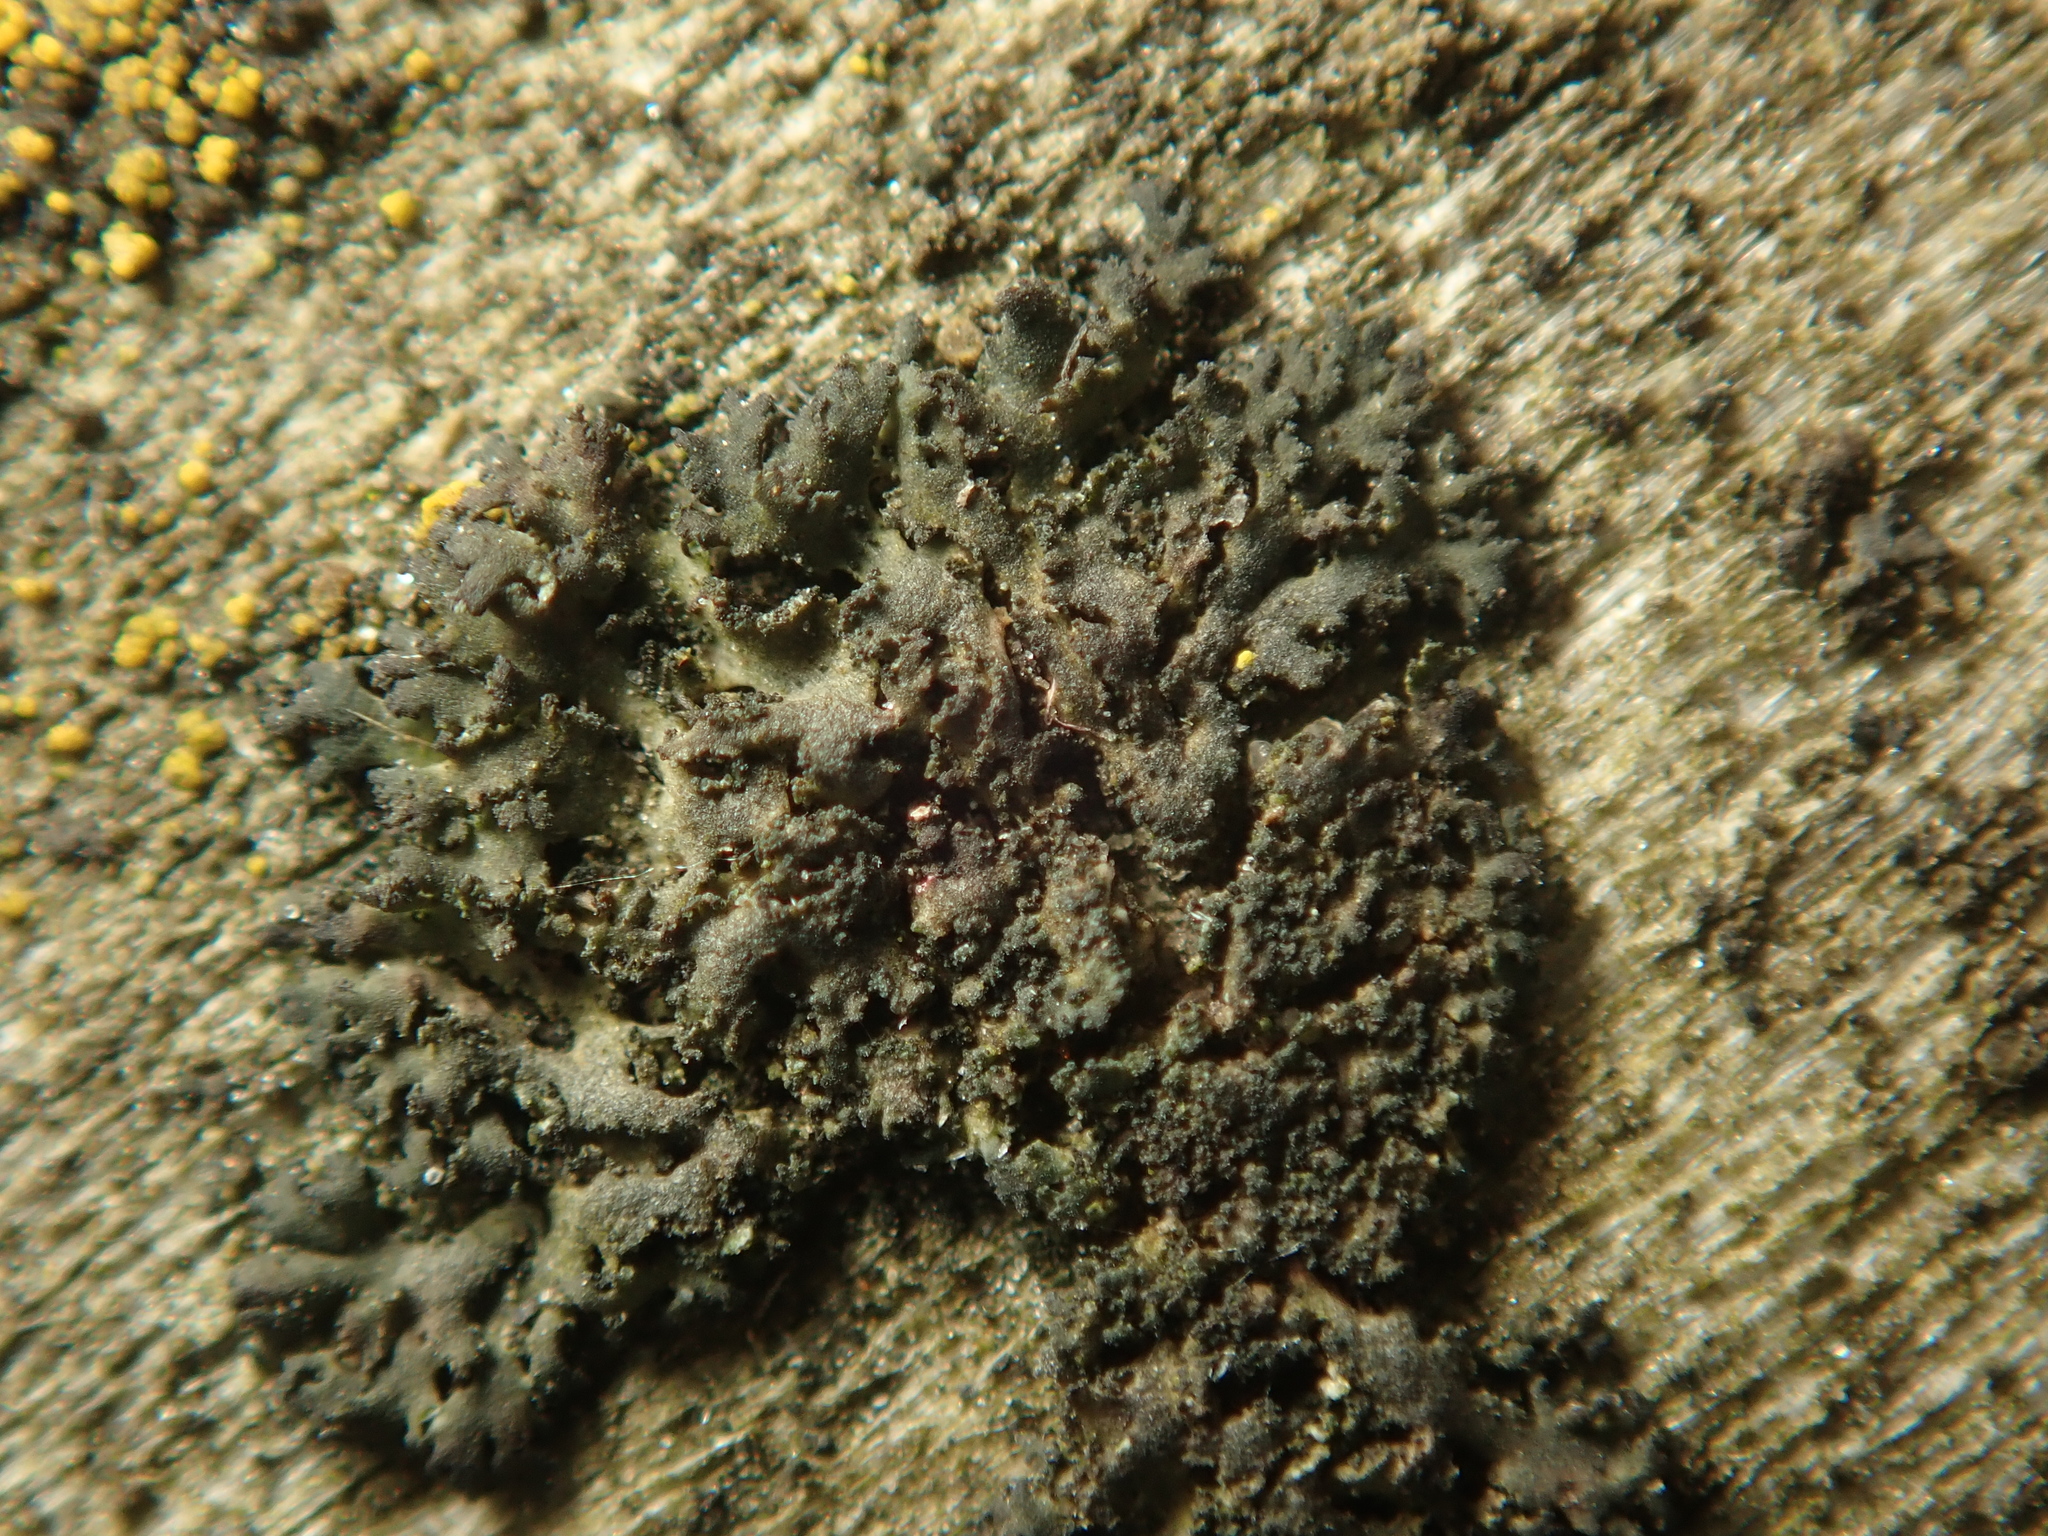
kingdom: Fungi
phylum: Ascomycota
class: Lecanoromycetes
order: Caliciales
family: Physciaceae
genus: Physciella
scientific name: Physciella nigricans
